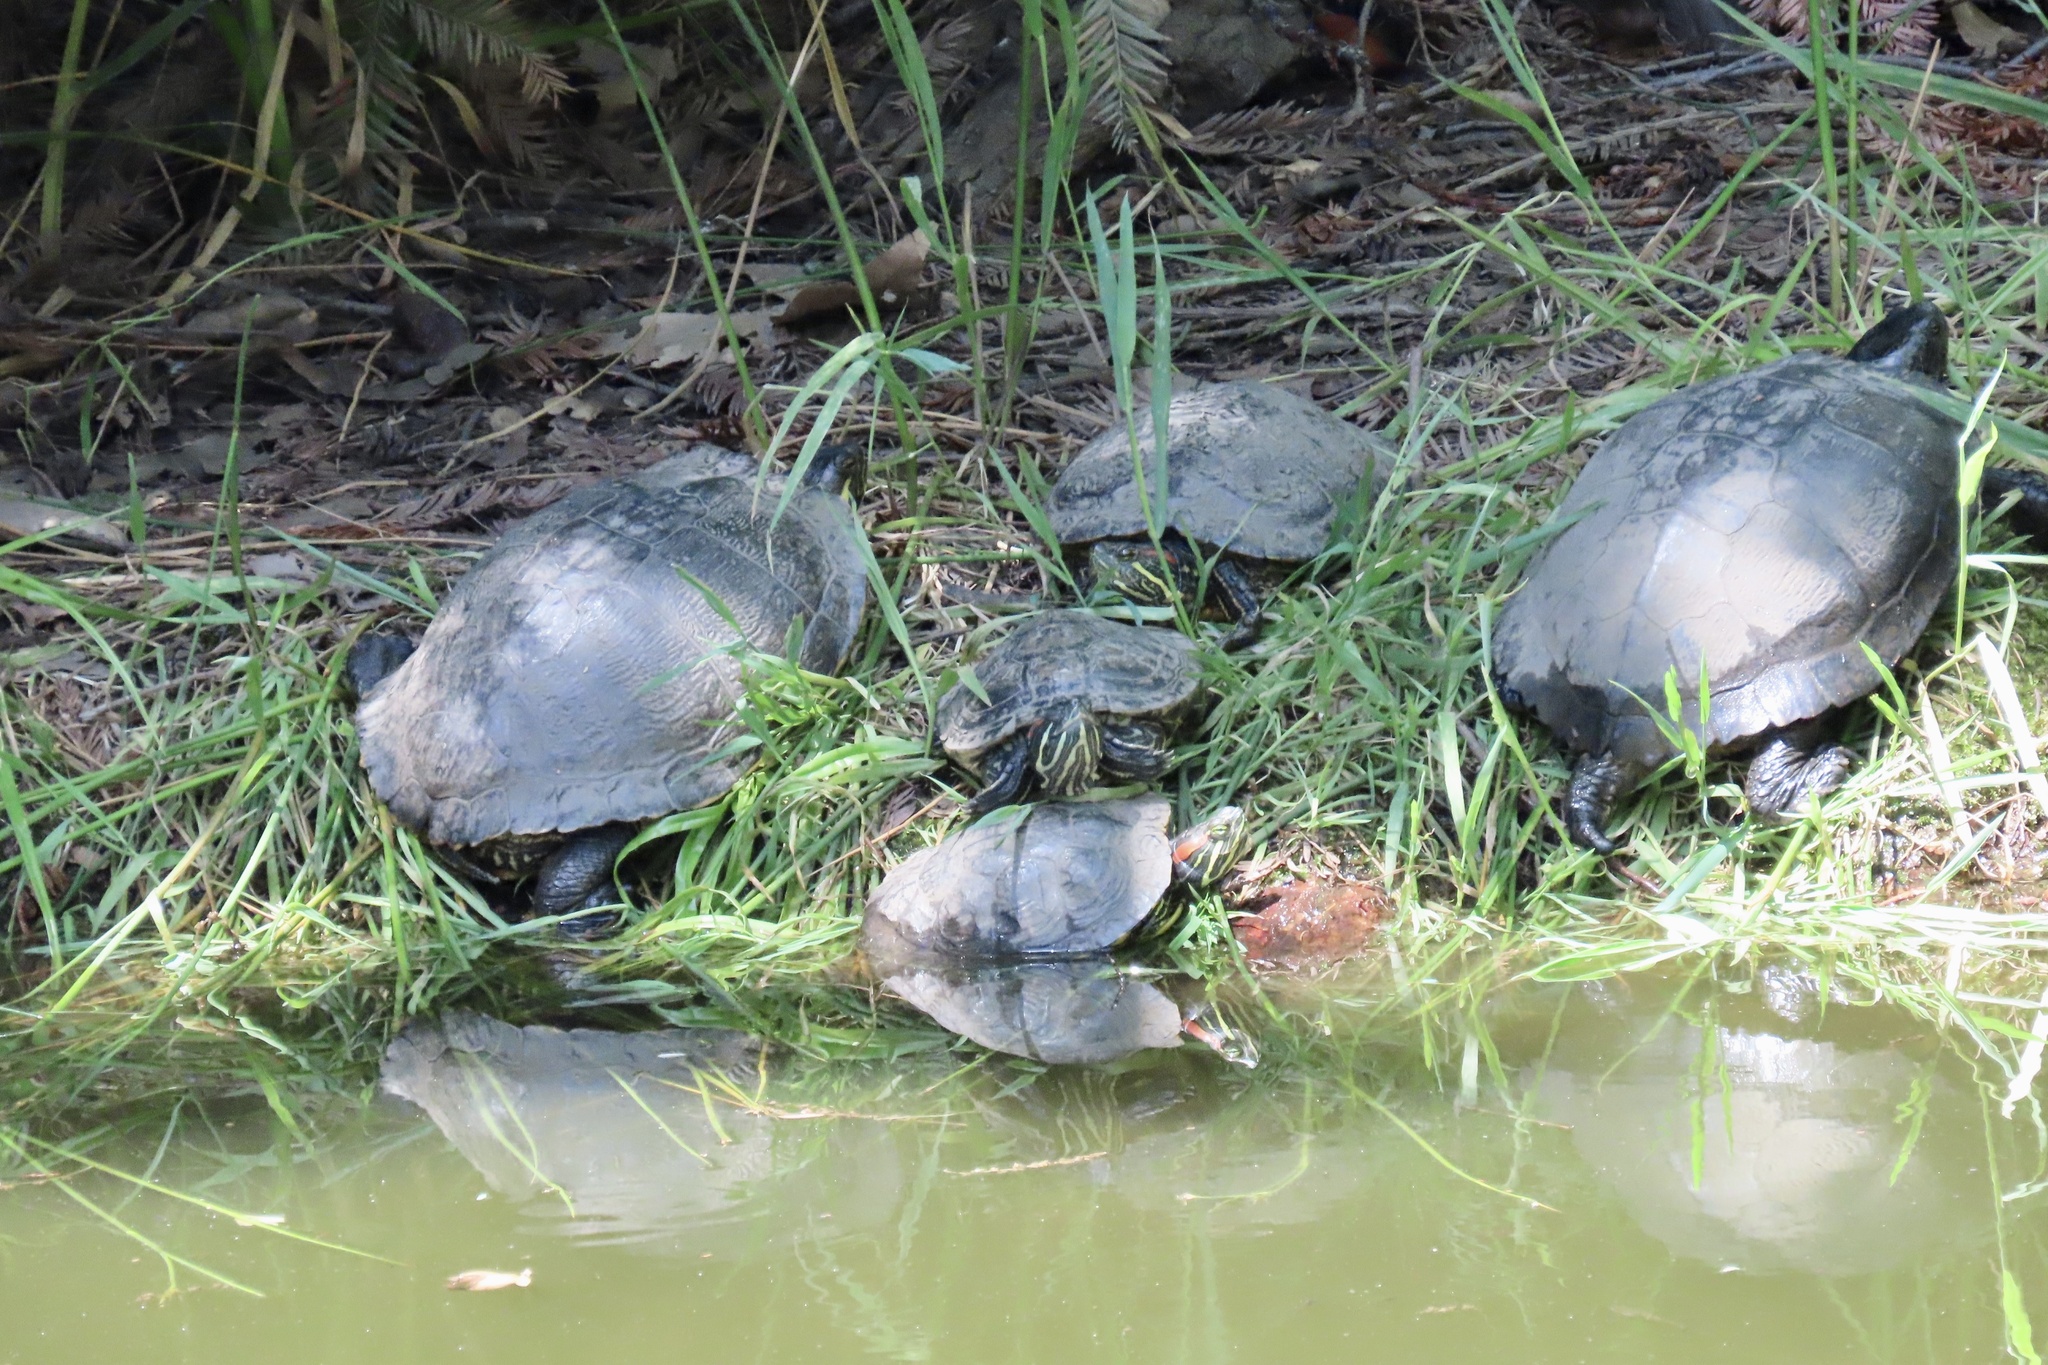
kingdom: Animalia
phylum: Chordata
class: Testudines
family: Emydidae
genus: Trachemys
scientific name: Trachemys scripta
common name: Slider
